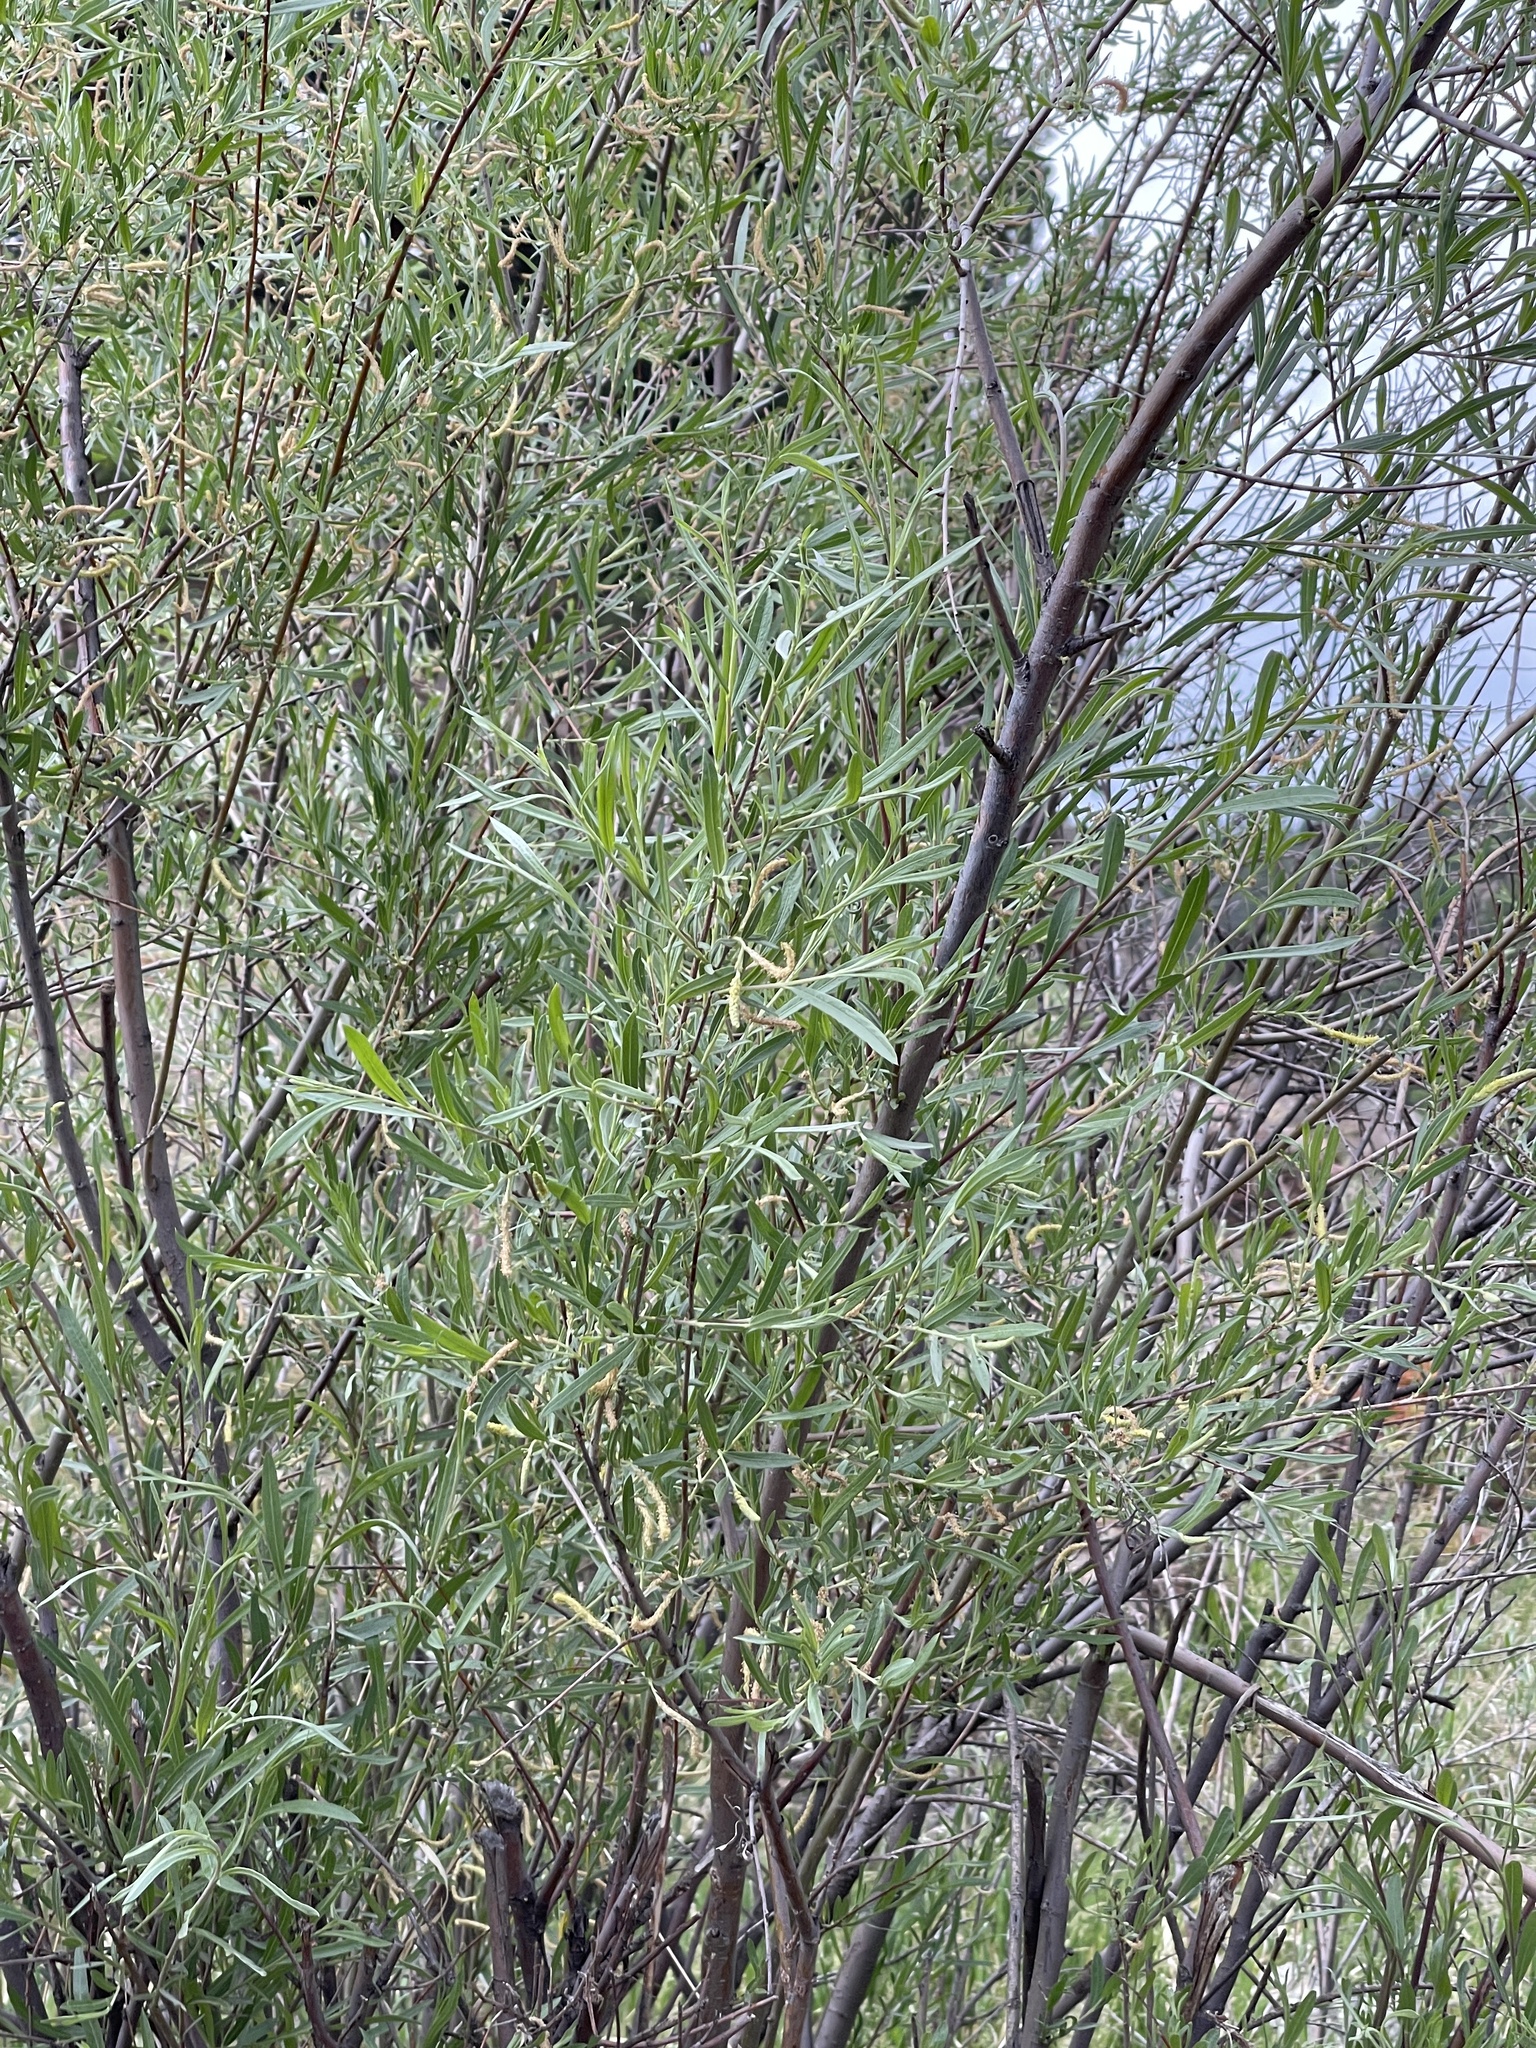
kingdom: Plantae
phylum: Tracheophyta
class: Magnoliopsida
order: Malpighiales
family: Salicaceae
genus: Salix
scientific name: Salix exigua
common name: Coyote willow
